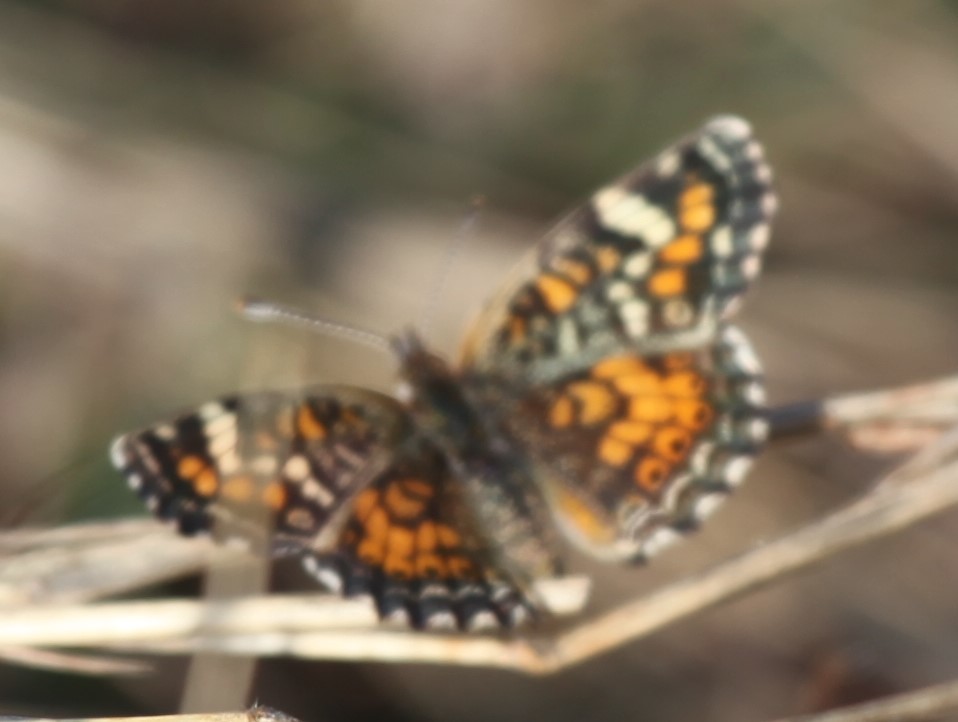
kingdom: Animalia
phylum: Arthropoda
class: Insecta
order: Lepidoptera
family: Nymphalidae
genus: Phyciodes
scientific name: Phyciodes phaon
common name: Phaon crescent
